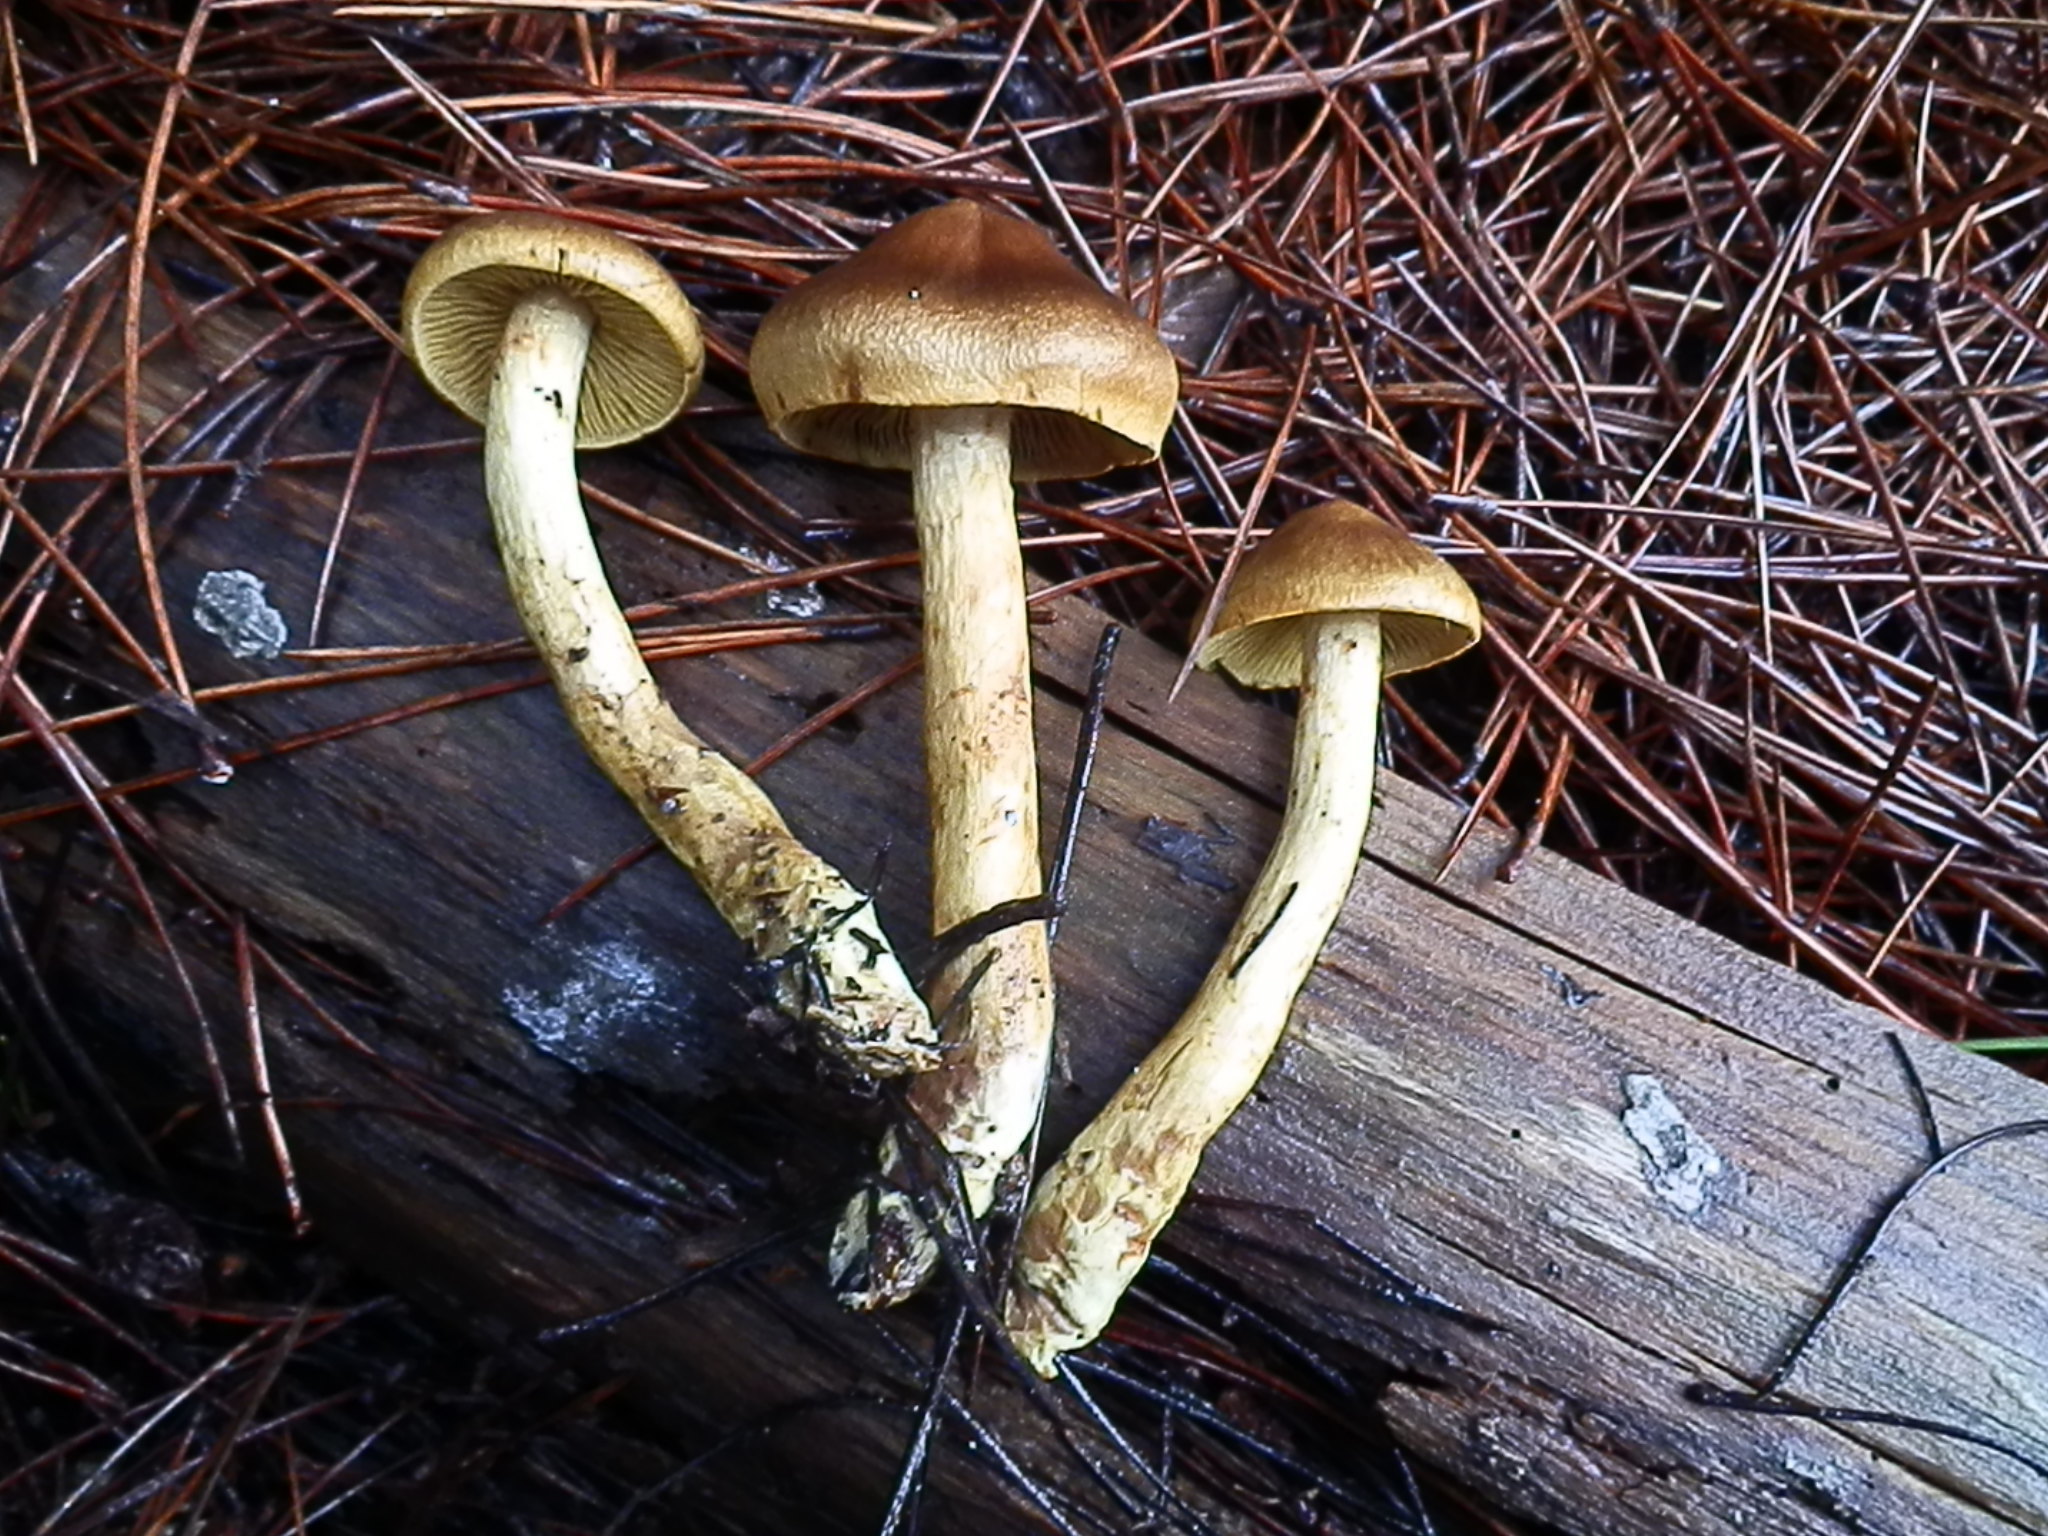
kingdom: Fungi
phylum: Basidiomycota
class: Agaricomycetes
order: Agaricales
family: Cortinariaceae
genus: Cortinarius
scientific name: Cortinarius thiersii
